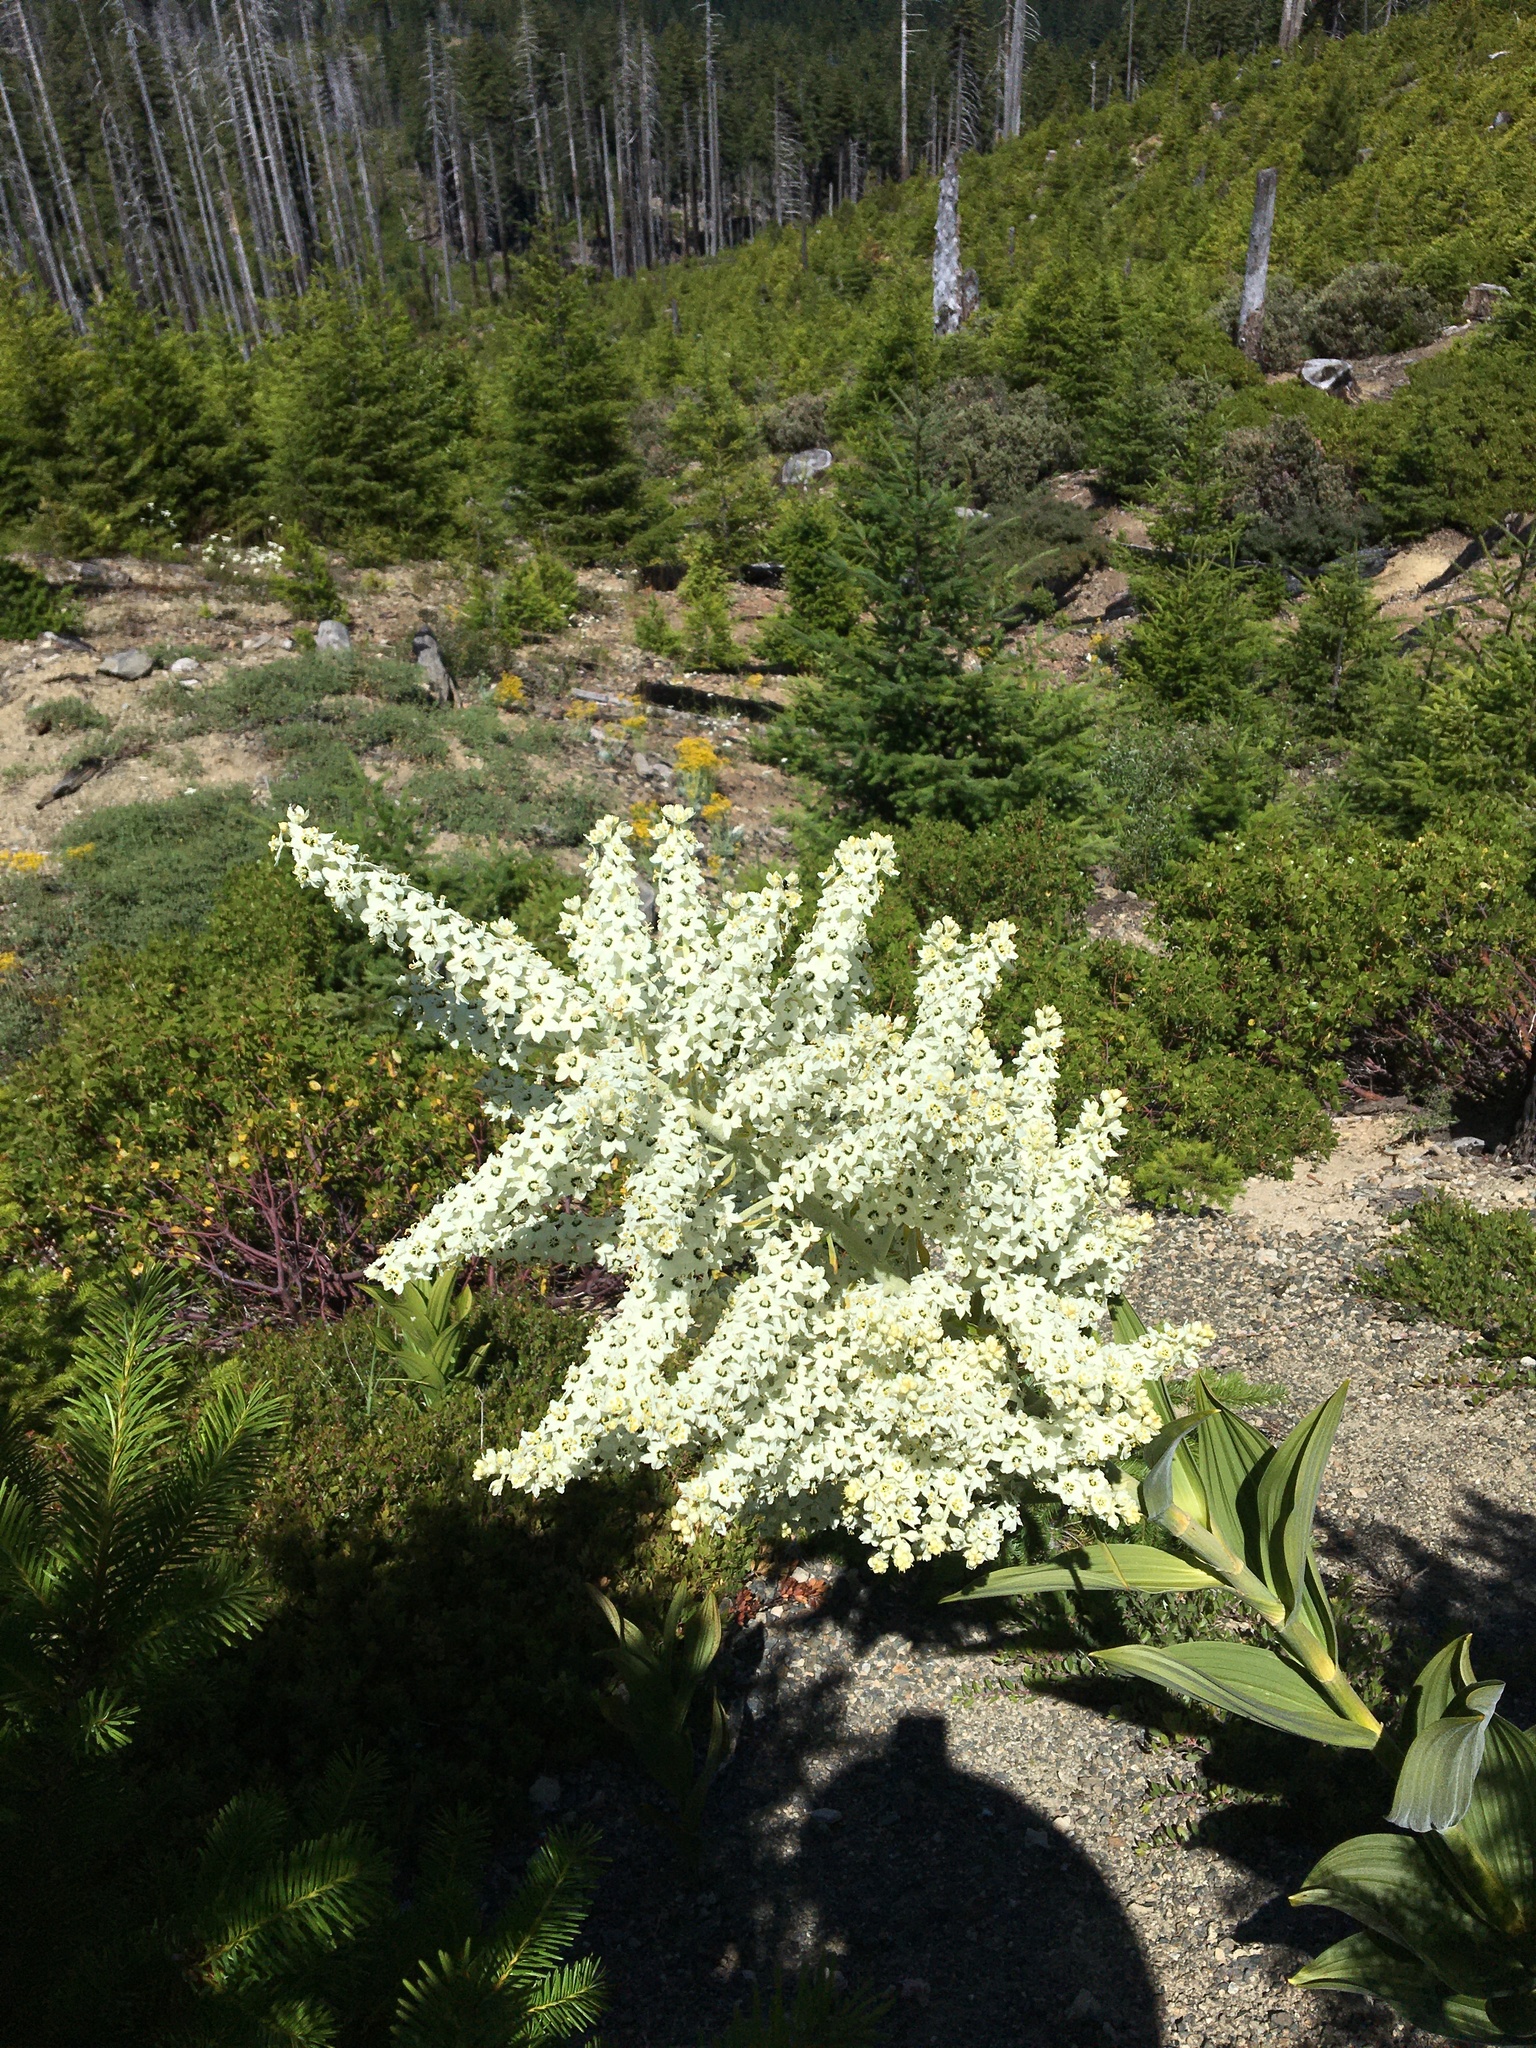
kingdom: Plantae
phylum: Tracheophyta
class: Liliopsida
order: Liliales
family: Melanthiaceae
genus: Veratrum
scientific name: Veratrum californicum
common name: California veratrum
